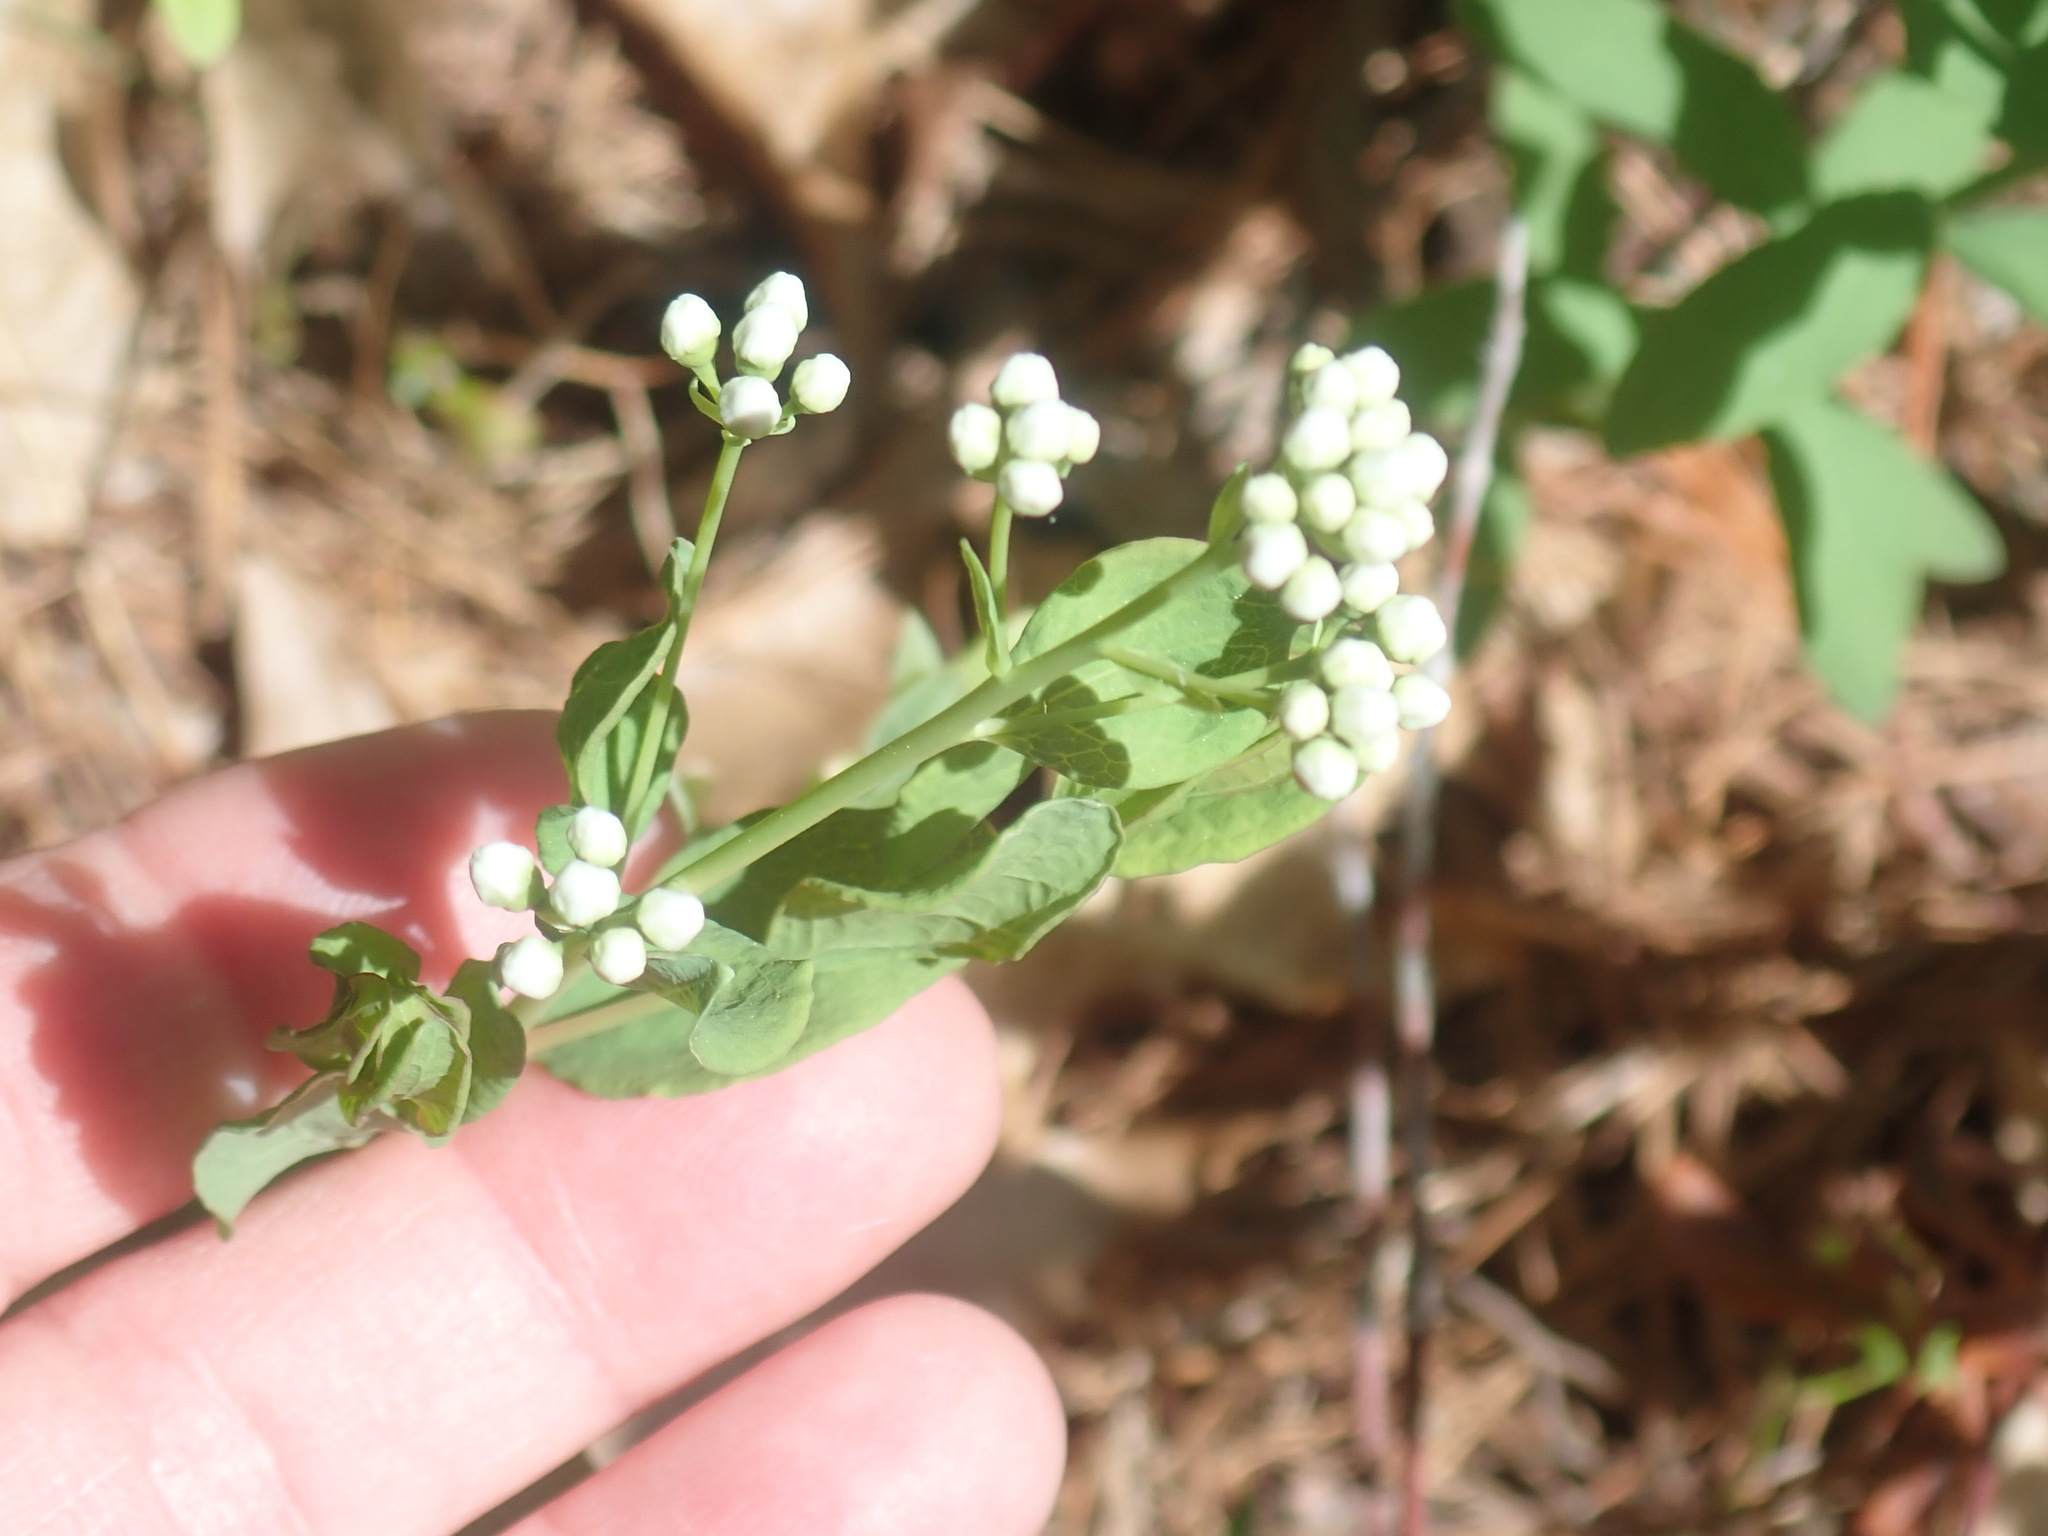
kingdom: Plantae
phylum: Tracheophyta
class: Magnoliopsida
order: Santalales
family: Comandraceae
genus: Comandra
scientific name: Comandra umbellata
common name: Bastard toadflax
